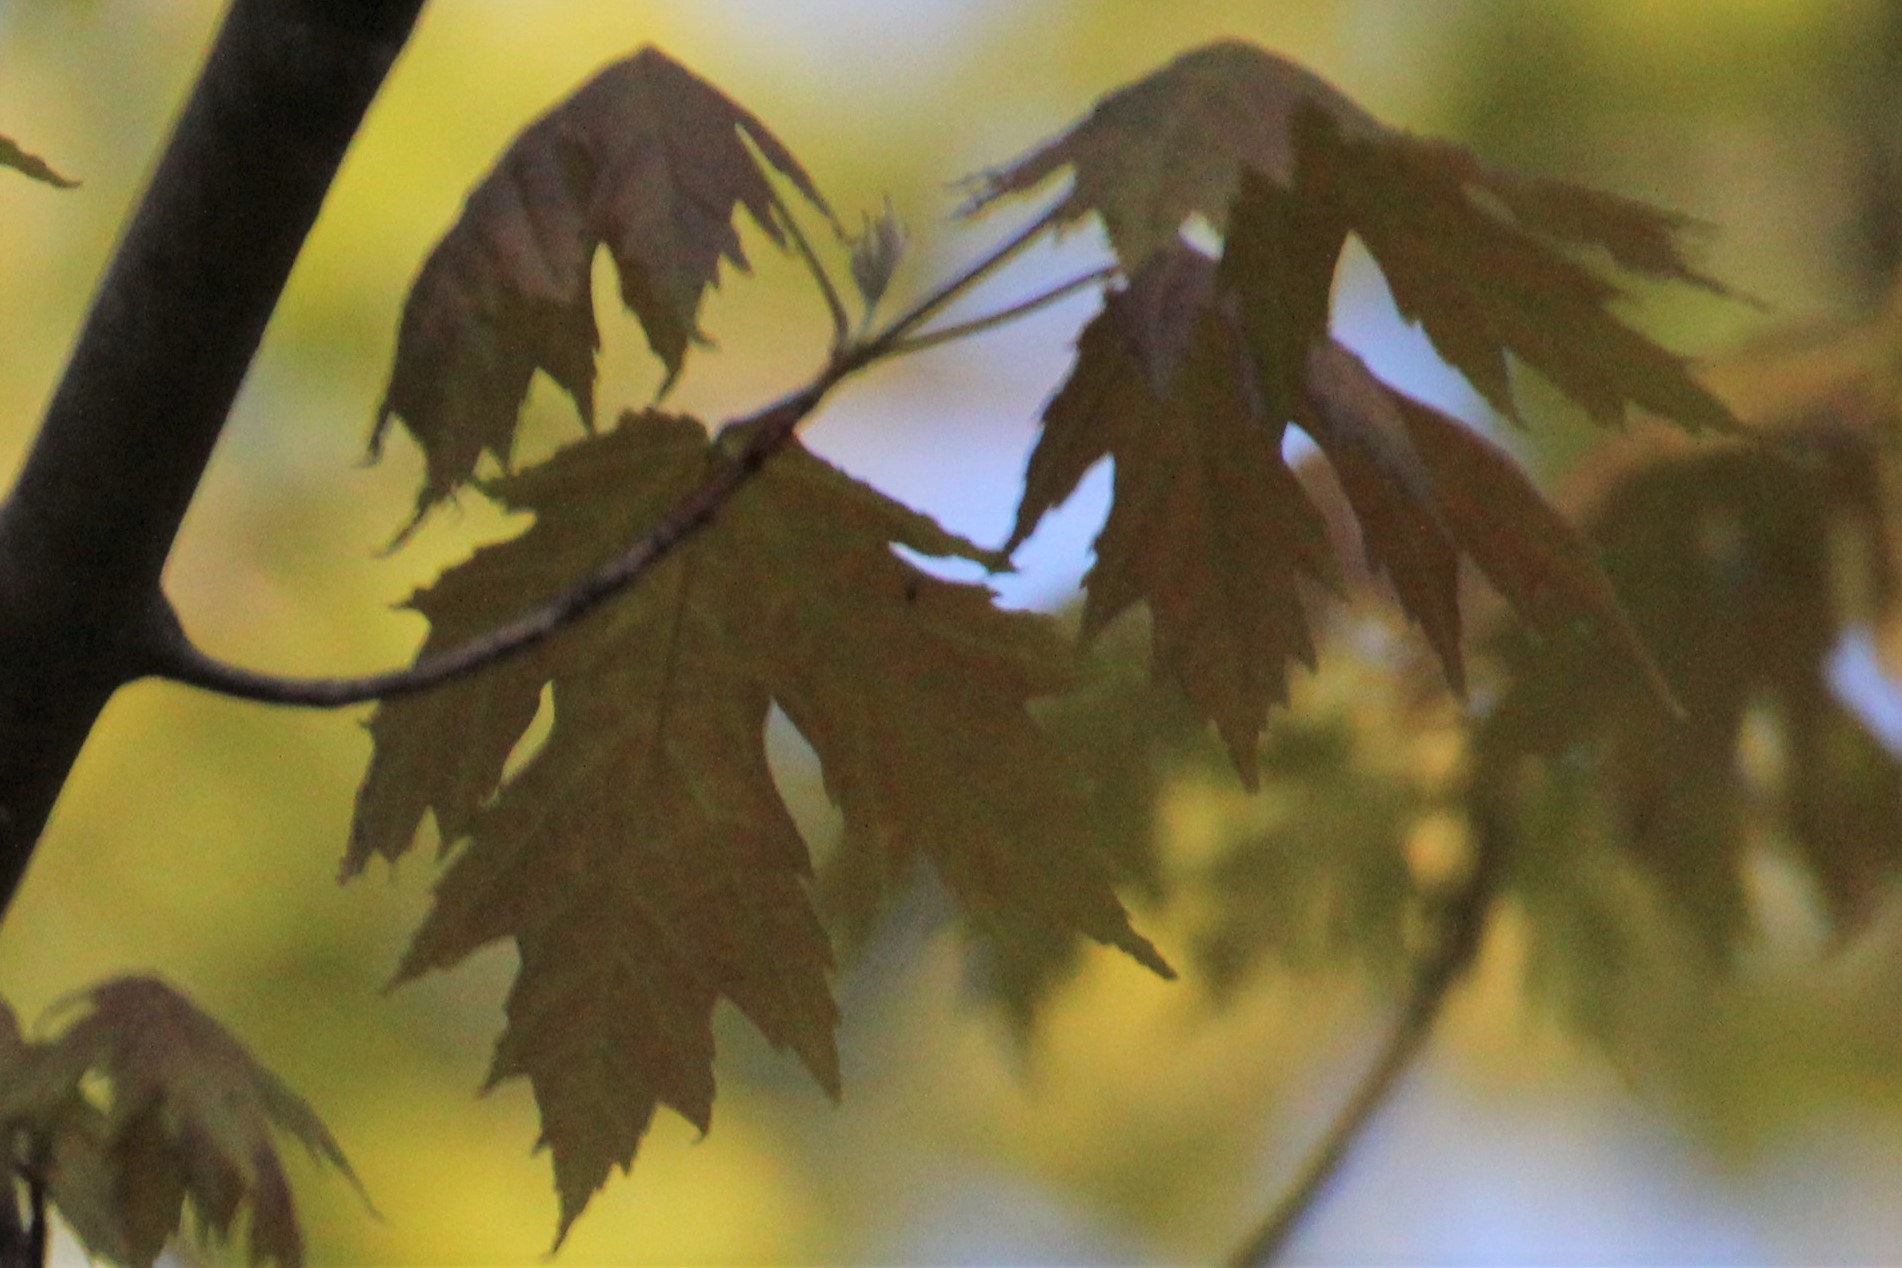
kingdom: Plantae
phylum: Tracheophyta
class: Magnoliopsida
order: Sapindales
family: Sapindaceae
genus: Acer
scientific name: Acer saccharinum
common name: Silver maple
